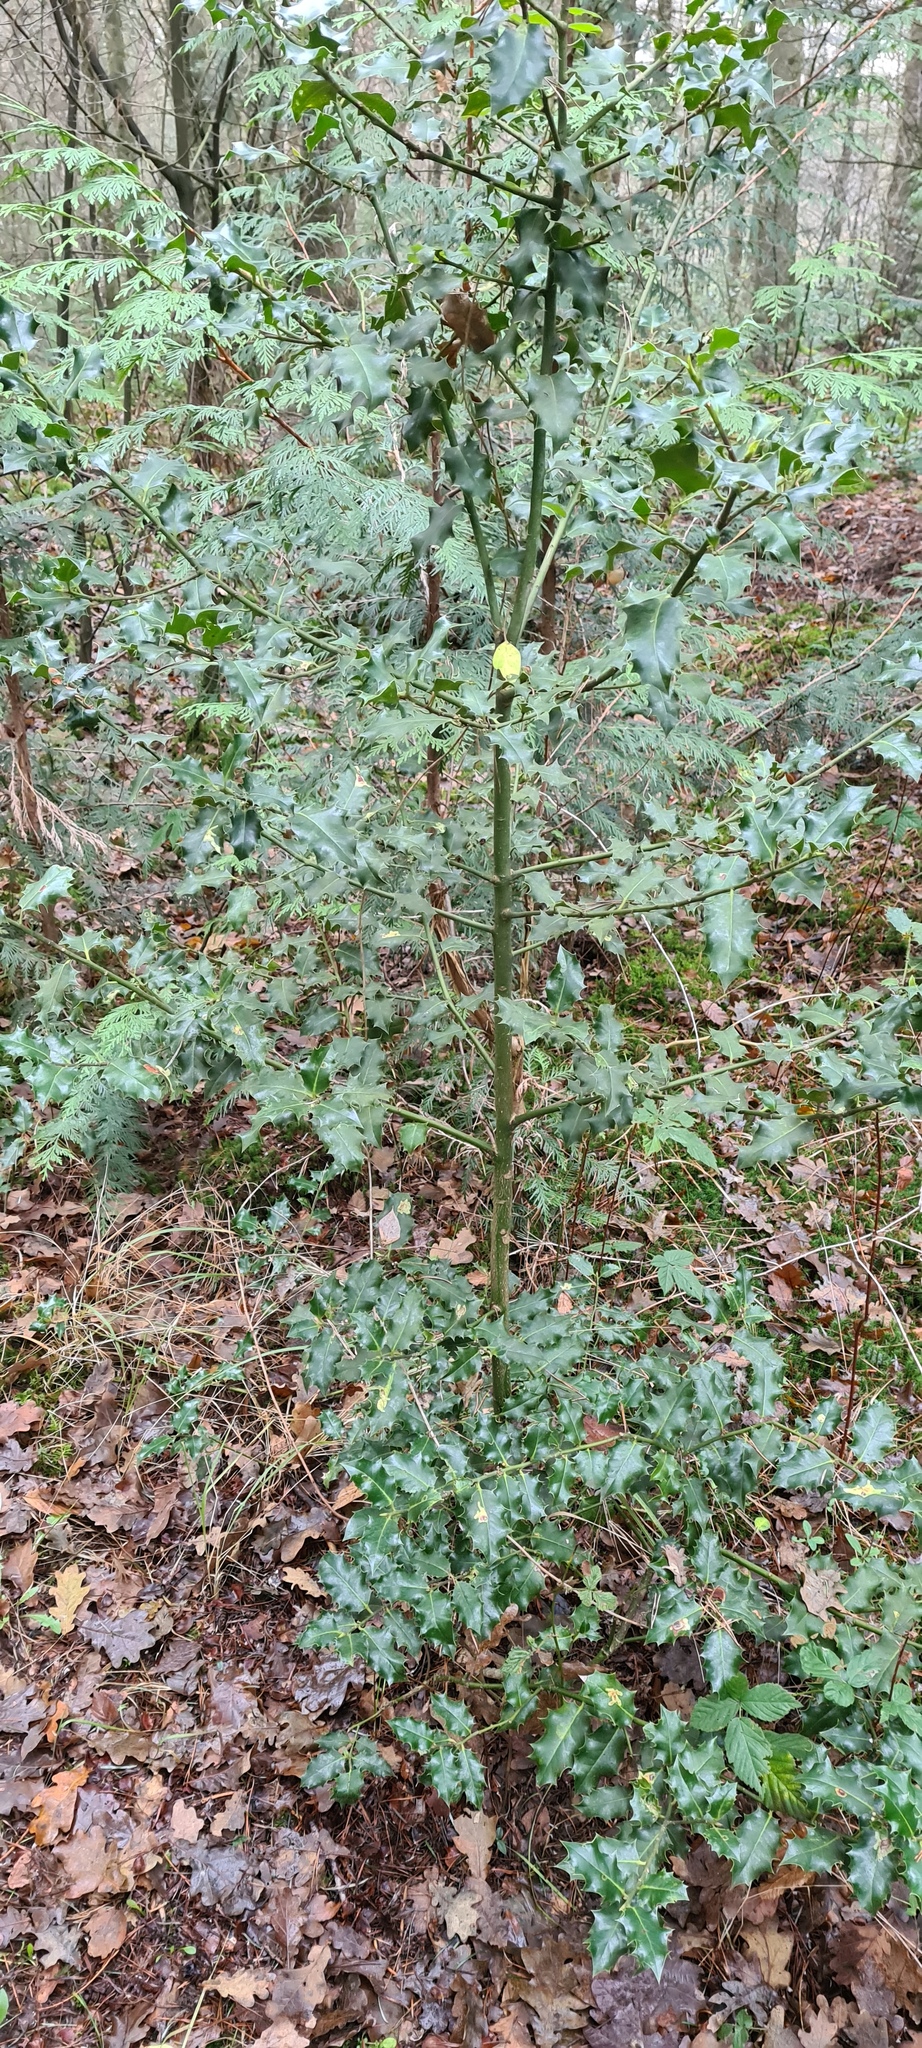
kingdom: Plantae
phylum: Tracheophyta
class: Magnoliopsida
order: Aquifoliales
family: Aquifoliaceae
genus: Ilex
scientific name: Ilex aquifolium
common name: English holly
